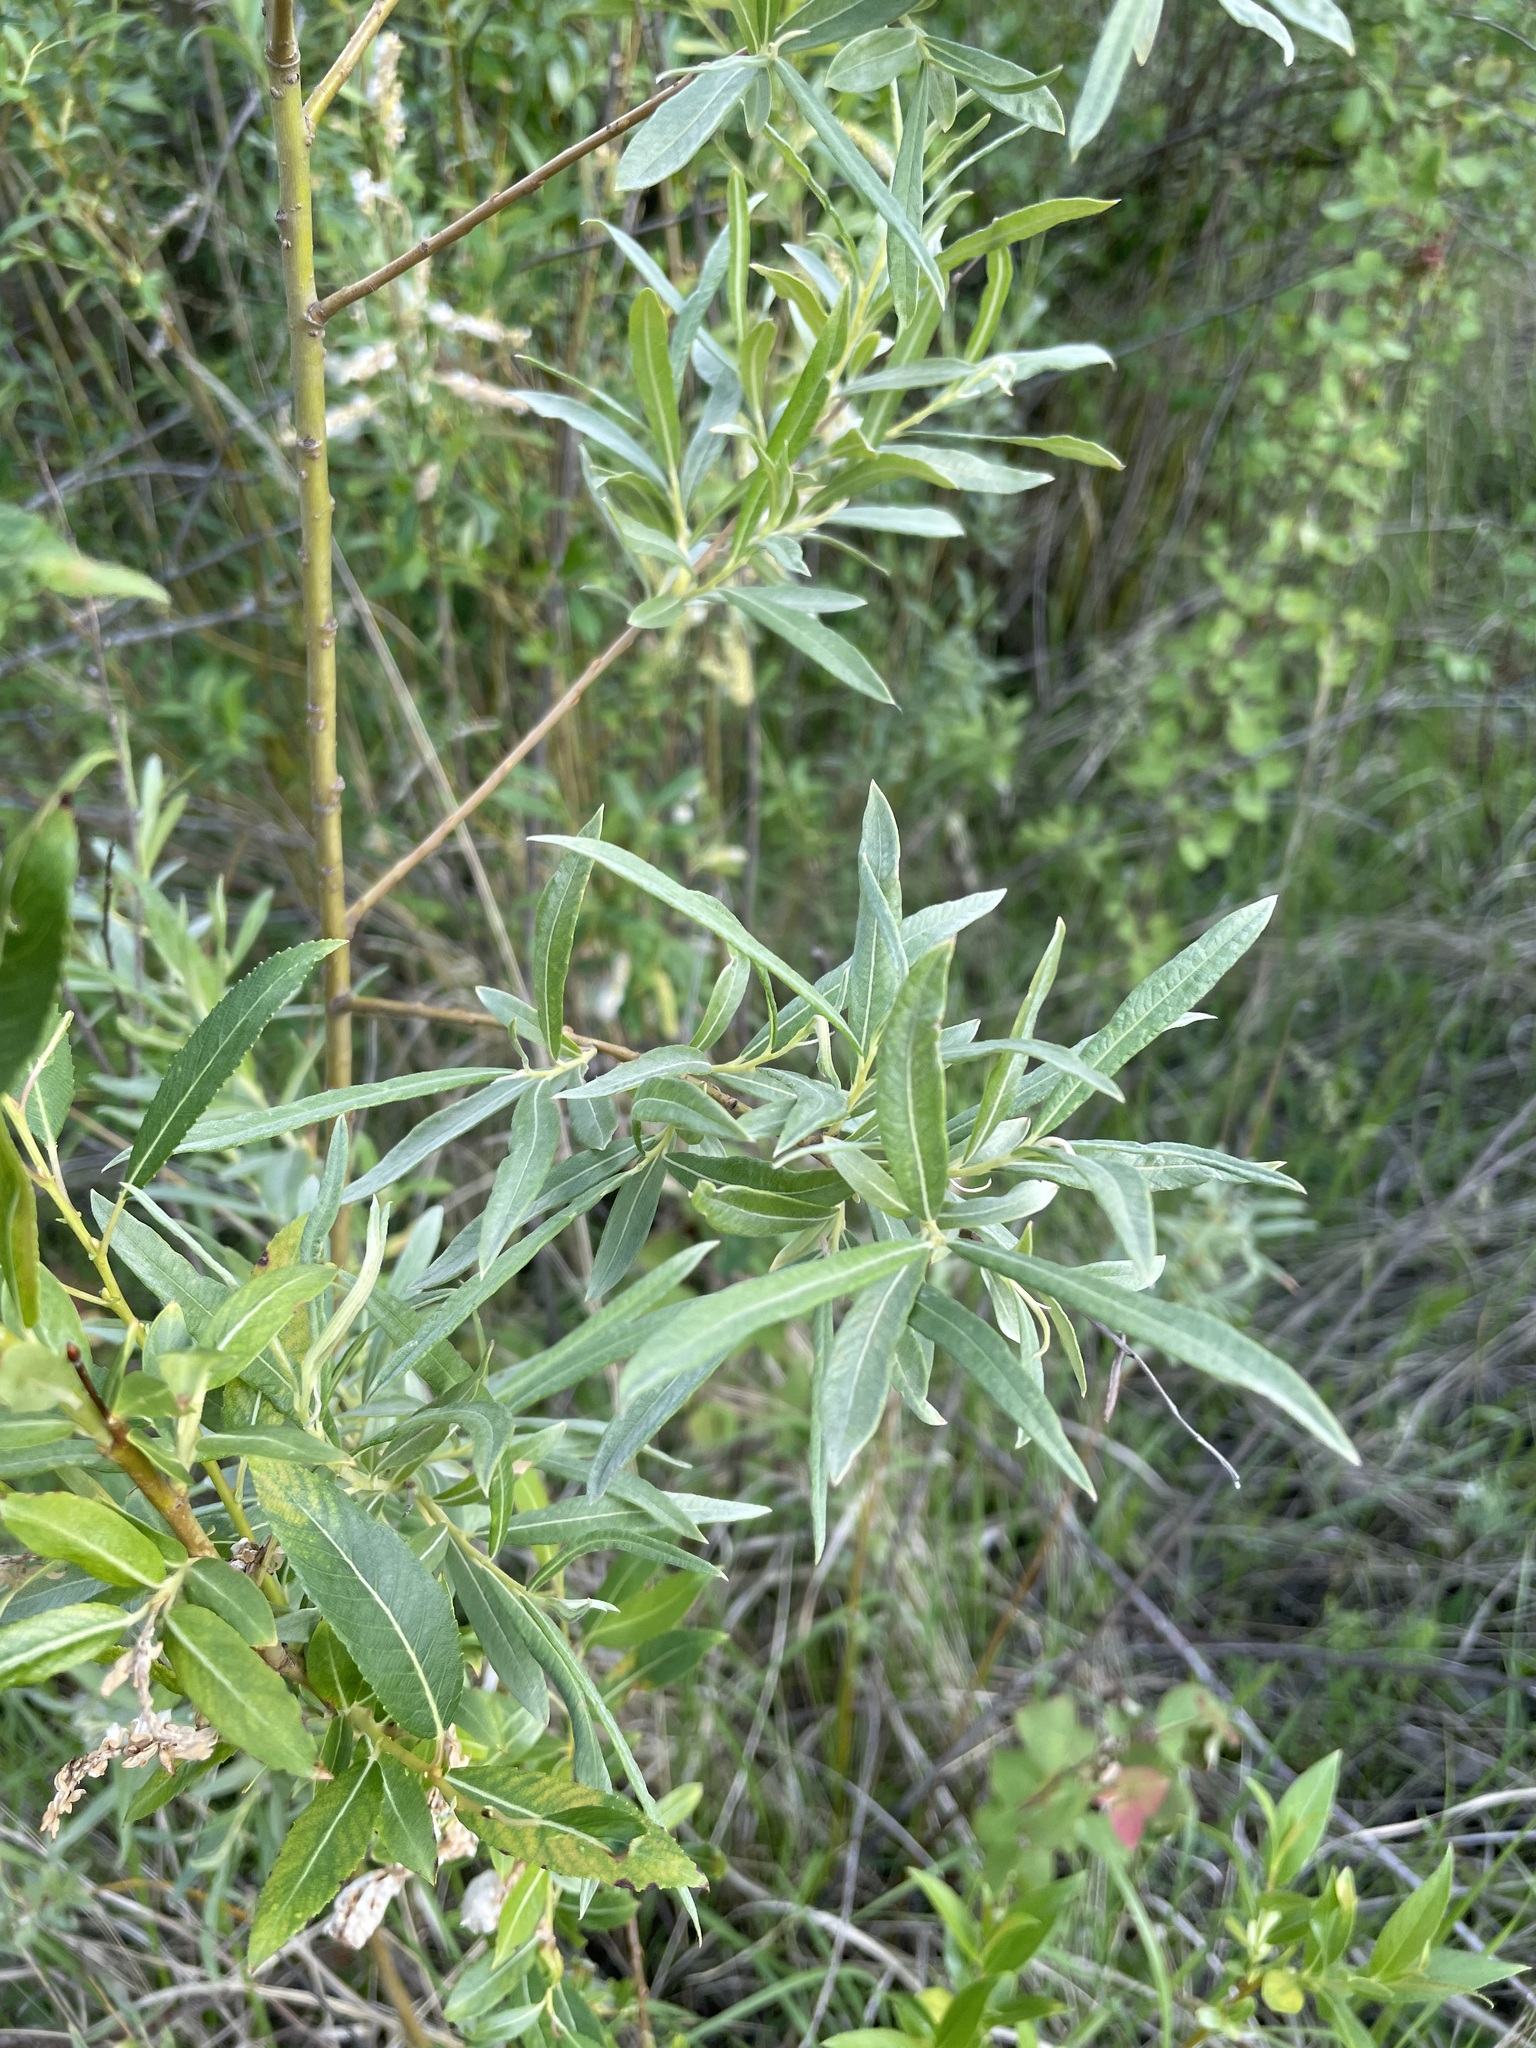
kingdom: Plantae
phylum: Tracheophyta
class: Magnoliopsida
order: Malpighiales
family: Salicaceae
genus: Salix
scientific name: Salix viminalis
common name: Osier
